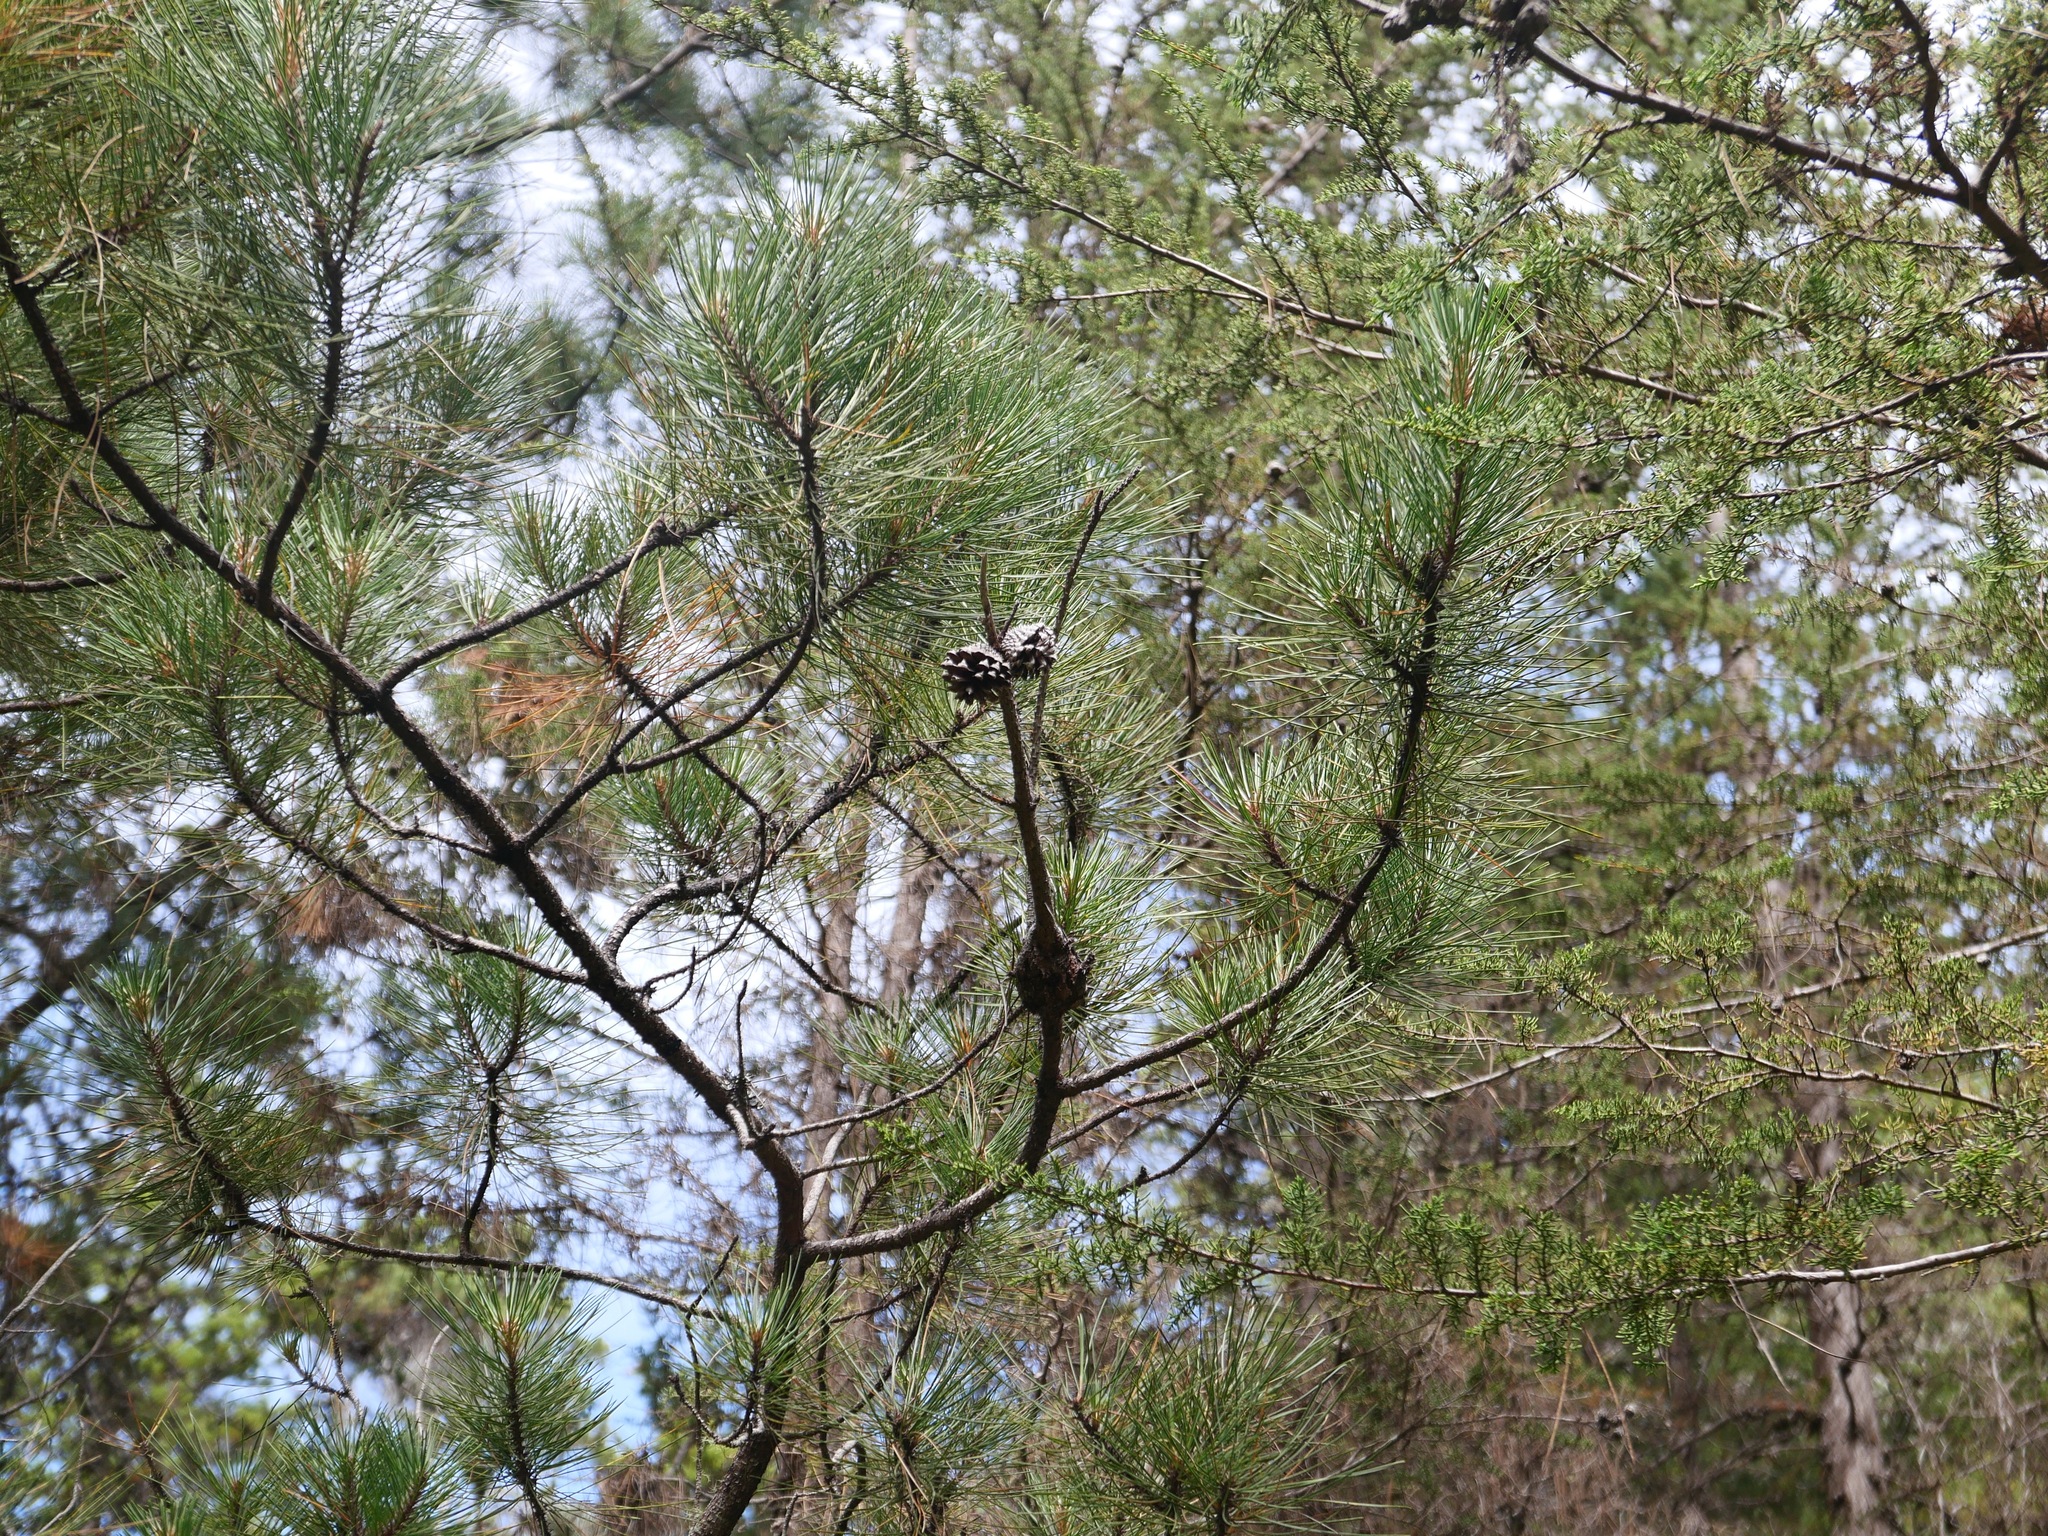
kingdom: Plantae
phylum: Tracheophyta
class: Pinopsida
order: Pinales
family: Pinaceae
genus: Pinus
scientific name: Pinus contorta
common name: Lodgepole pine
